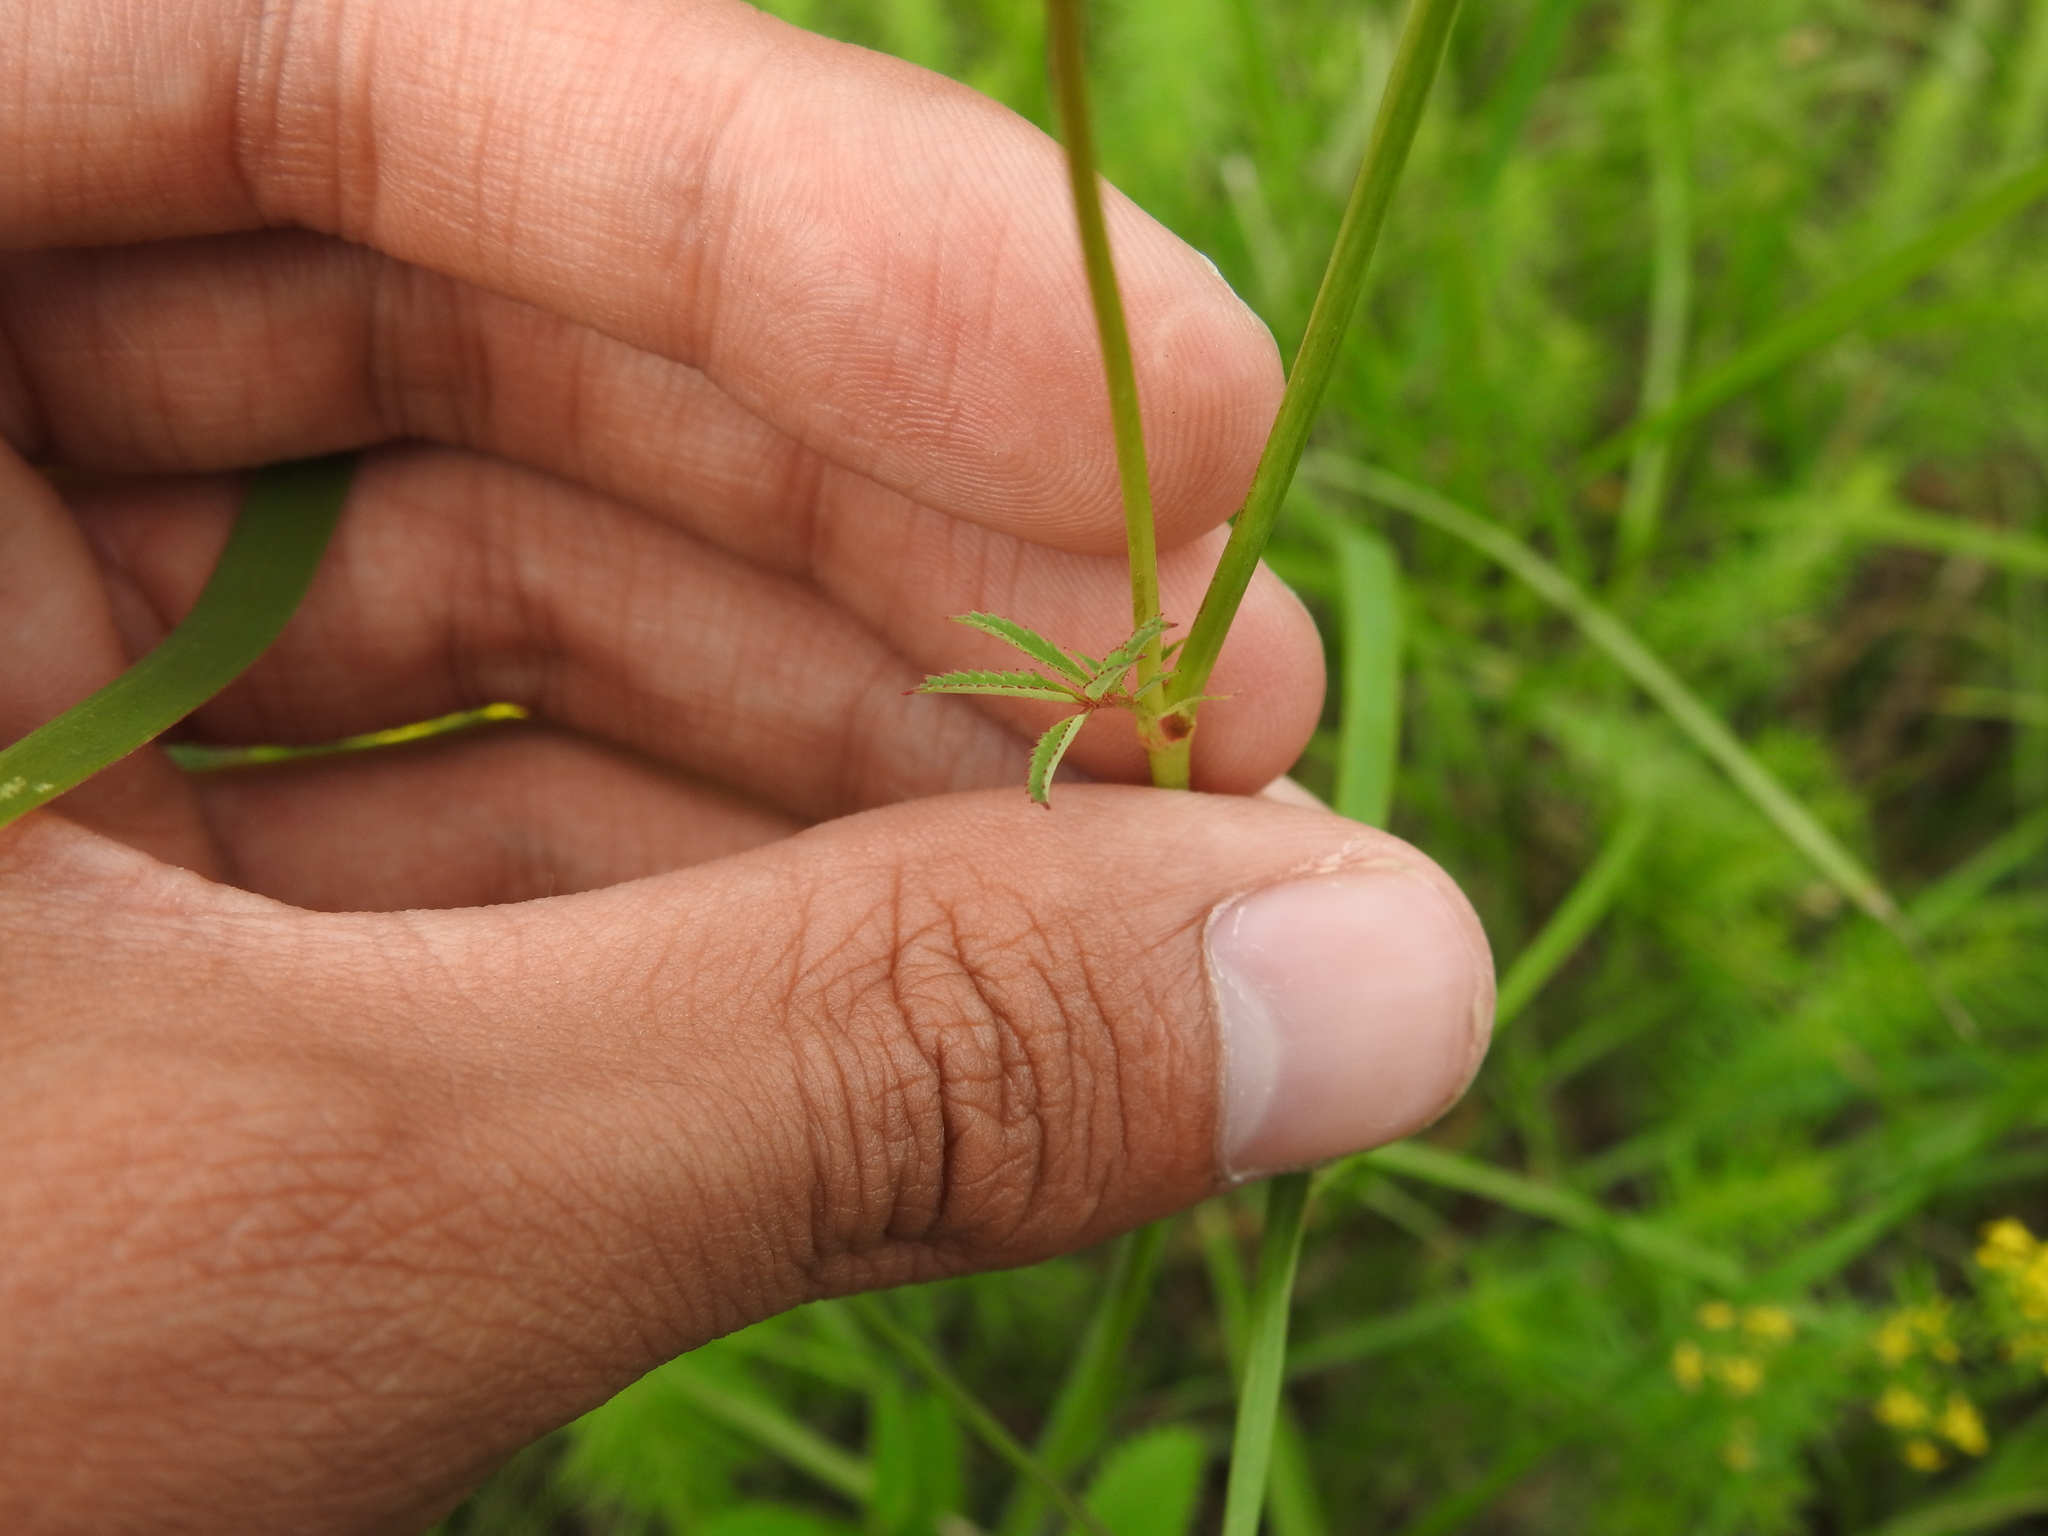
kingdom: Plantae
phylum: Tracheophyta
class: Magnoliopsida
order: Rosales
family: Rosaceae
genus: Sanguisorba
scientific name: Sanguisorba officinalis
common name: Great burnet
